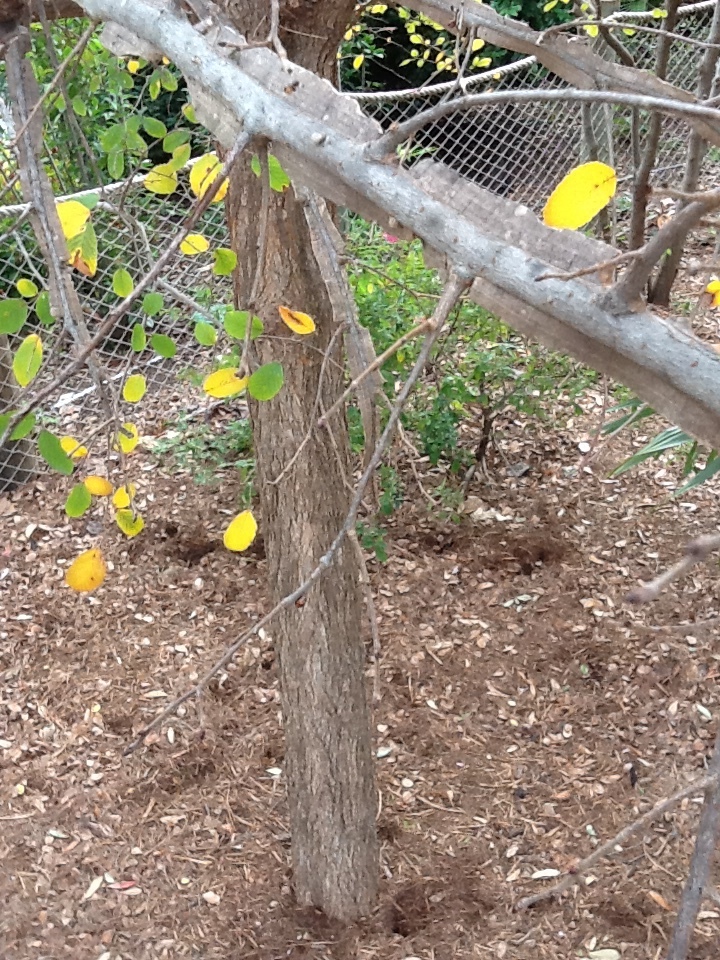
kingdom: Plantae
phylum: Tracheophyta
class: Magnoliopsida
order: Rosales
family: Ulmaceae
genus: Ulmus
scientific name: Ulmus crassifolia
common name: Basket elm
